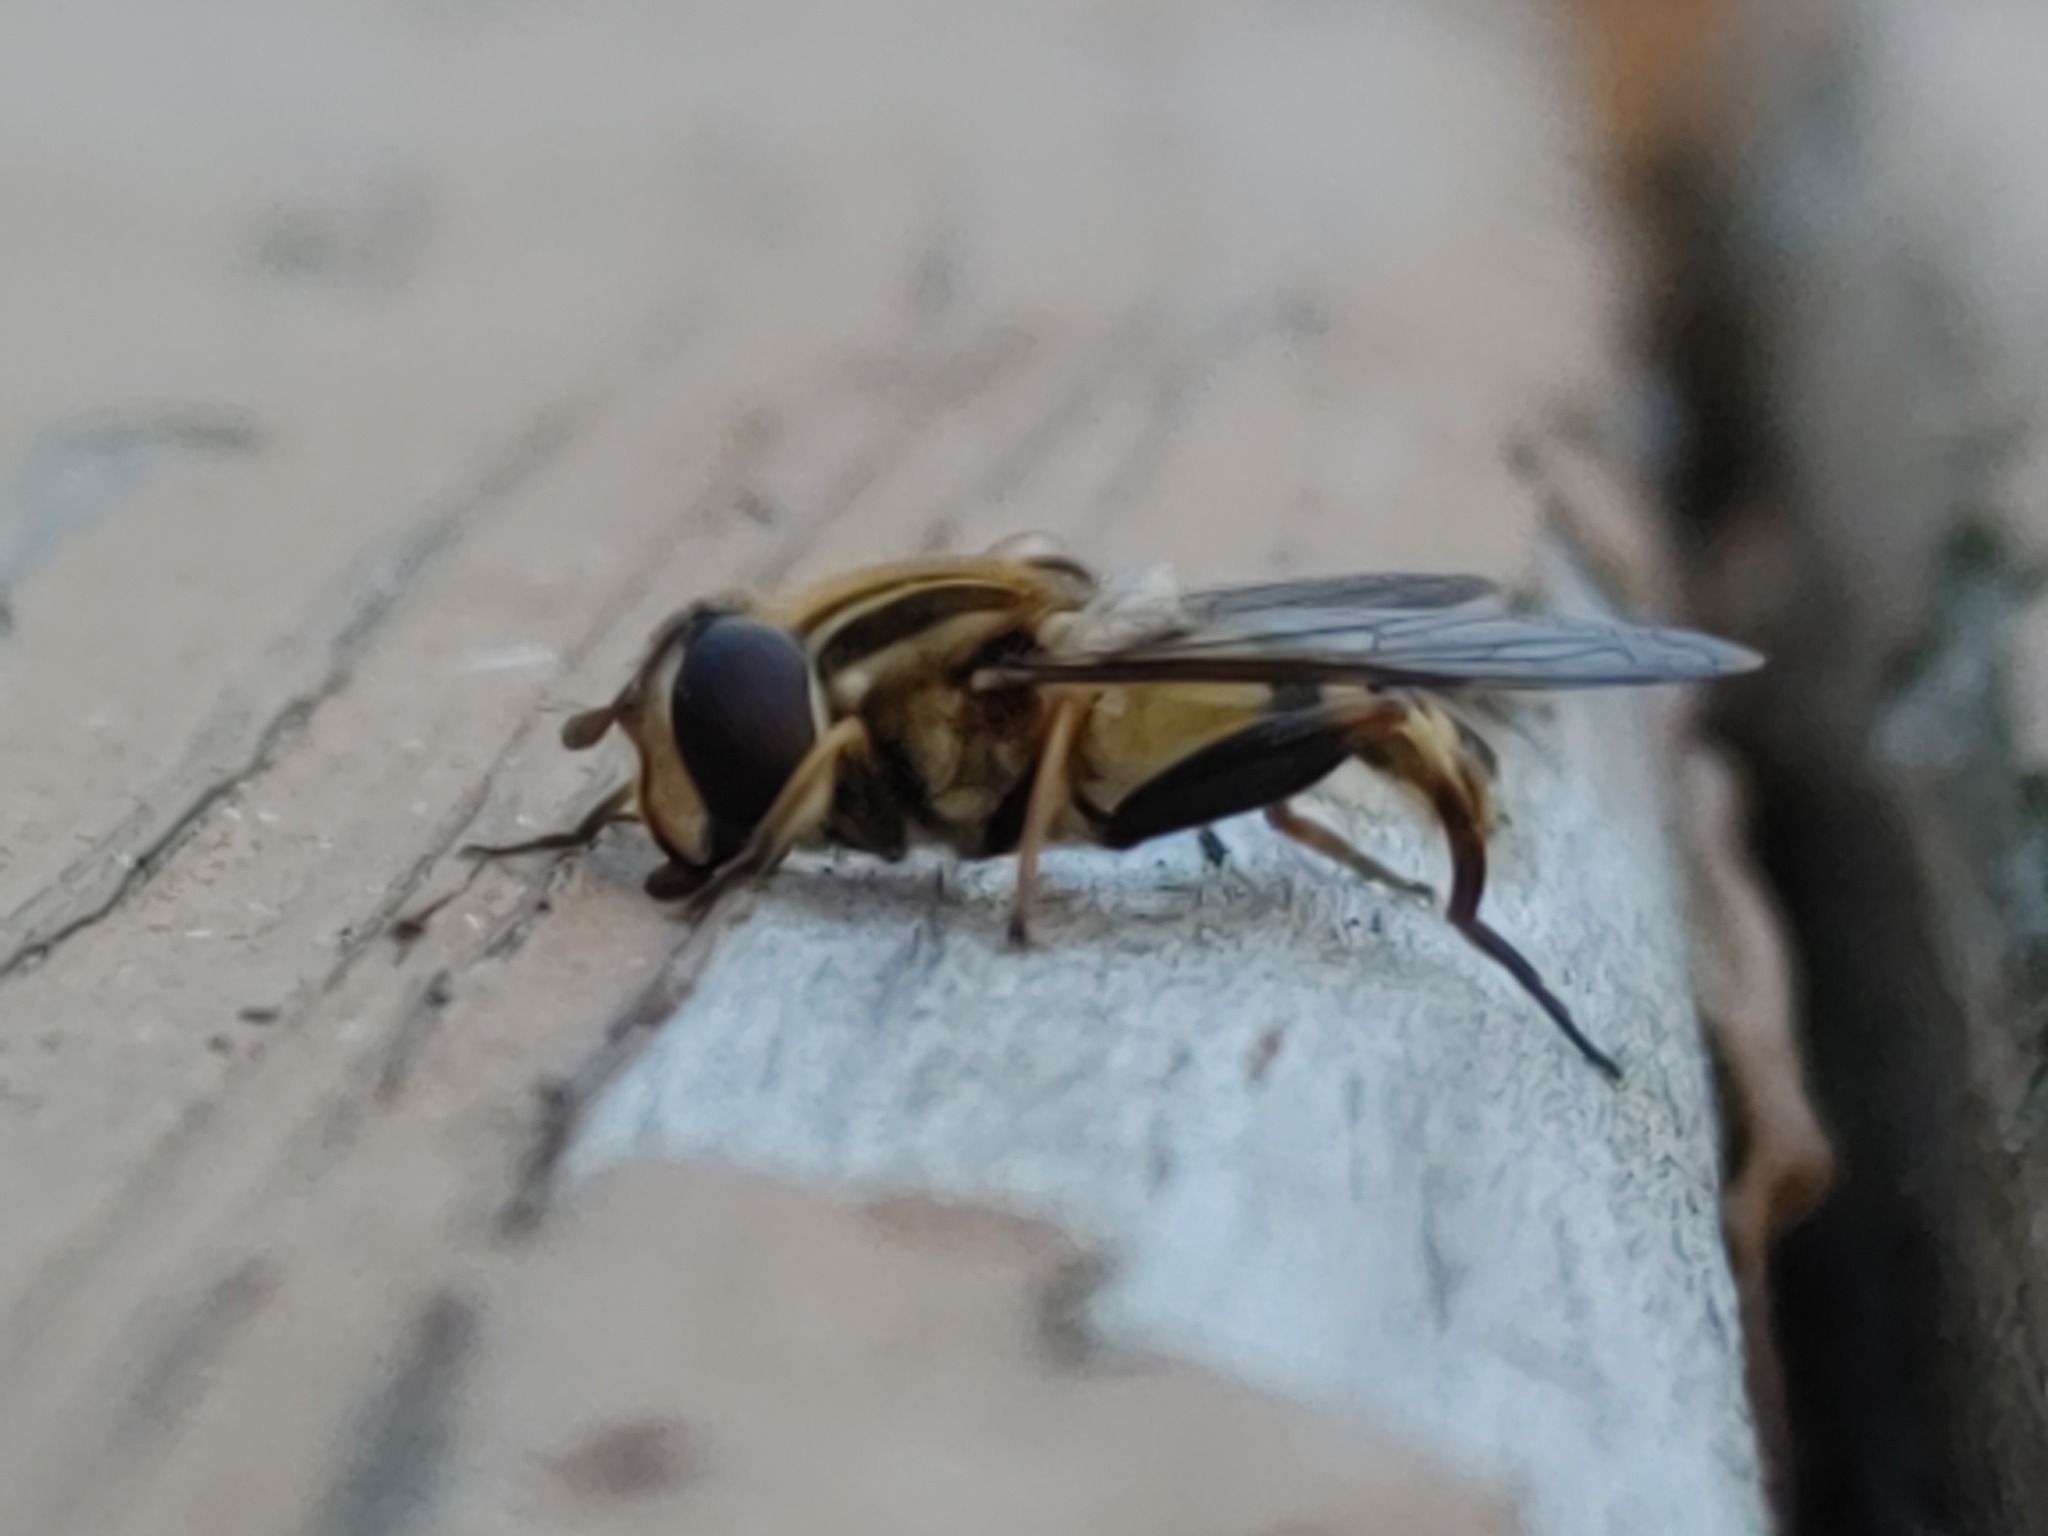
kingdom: Animalia
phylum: Arthropoda
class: Insecta
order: Diptera
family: Syrphidae
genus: Helophilus
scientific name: Helophilus fasciatus
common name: Narrow-headed marsh fly
